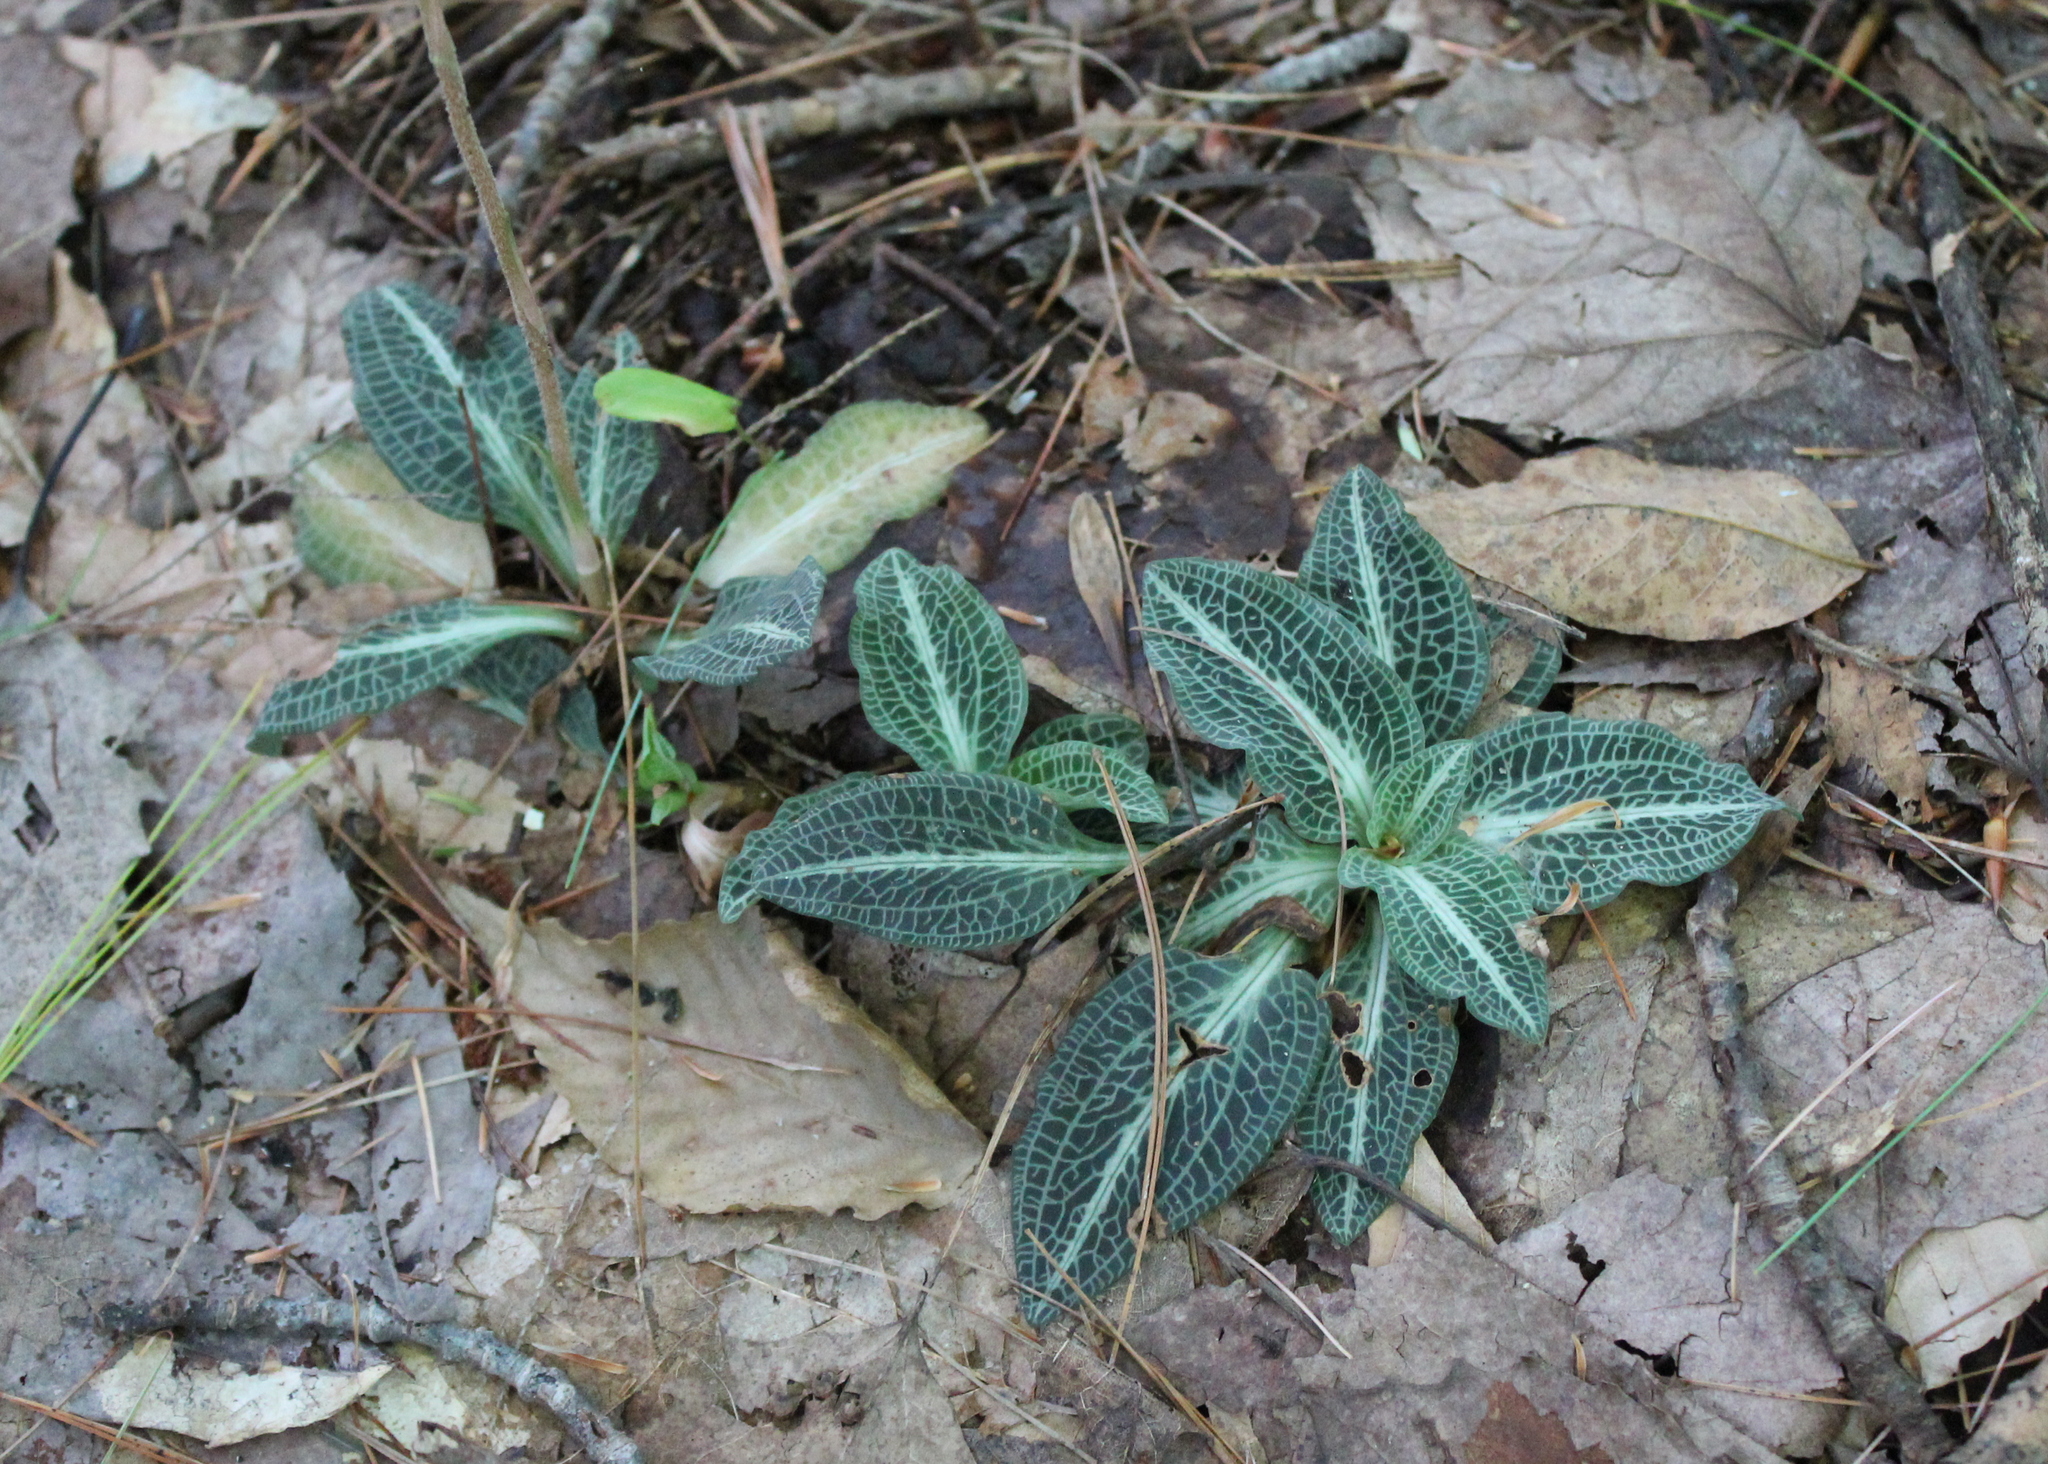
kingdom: Plantae
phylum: Tracheophyta
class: Liliopsida
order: Asparagales
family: Orchidaceae
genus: Goodyera
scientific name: Goodyera pubescens
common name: Downy rattlesnake-plantain
